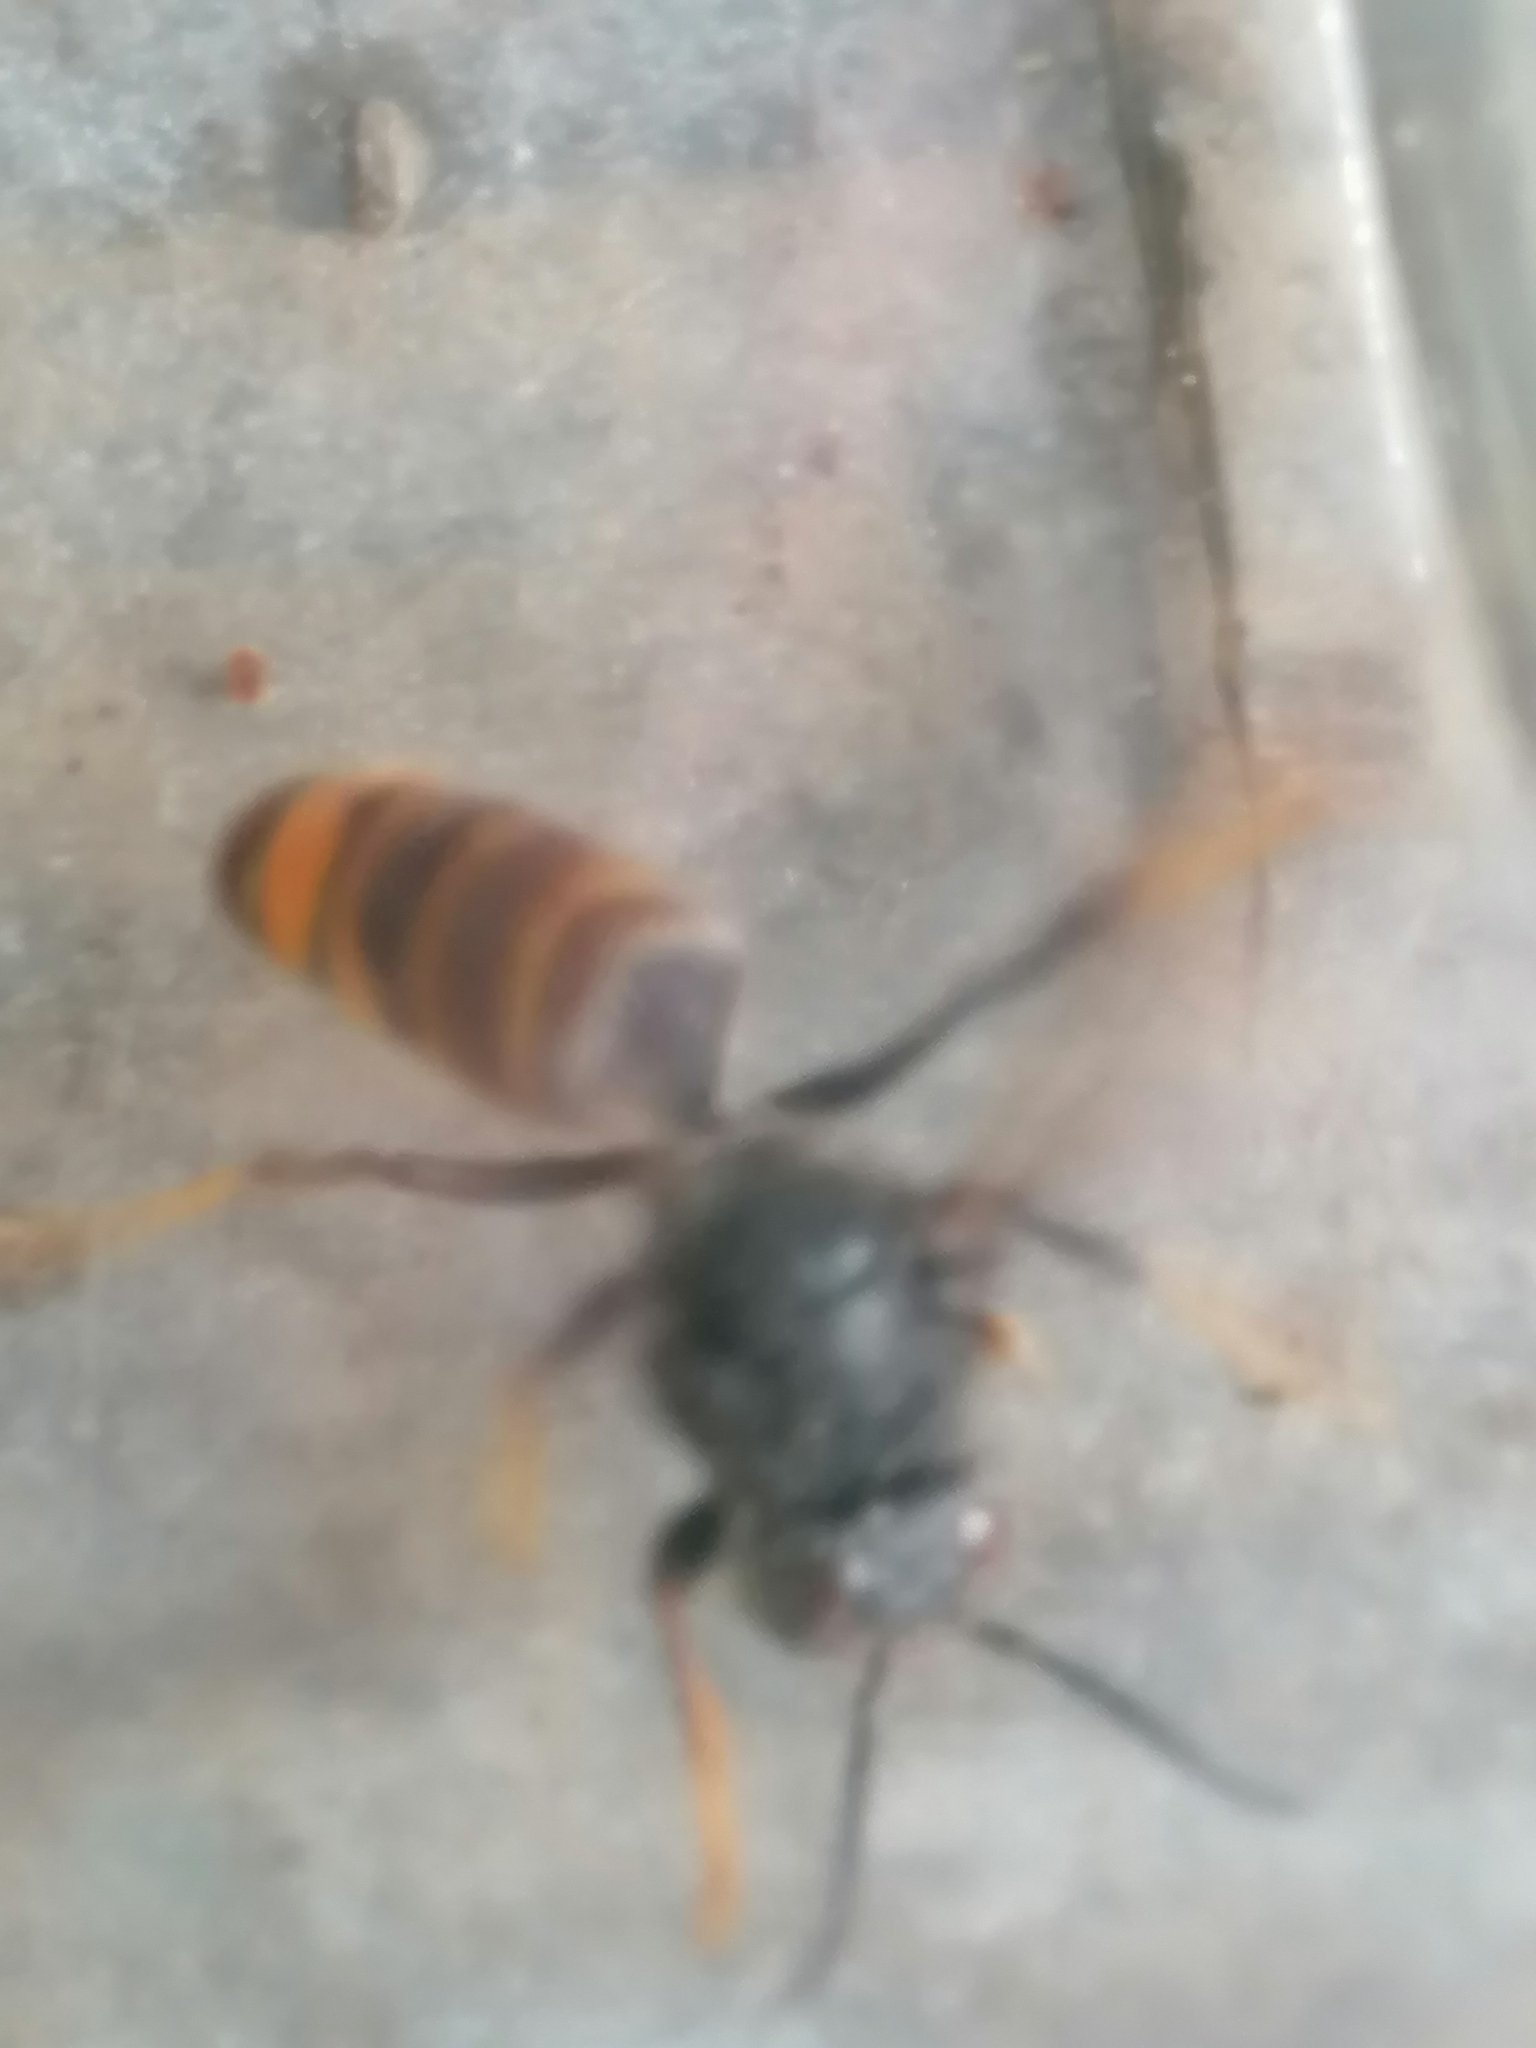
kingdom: Animalia
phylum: Arthropoda
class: Insecta
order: Hymenoptera
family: Vespidae
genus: Vespa
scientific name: Vespa velutina
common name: Asian hornet
